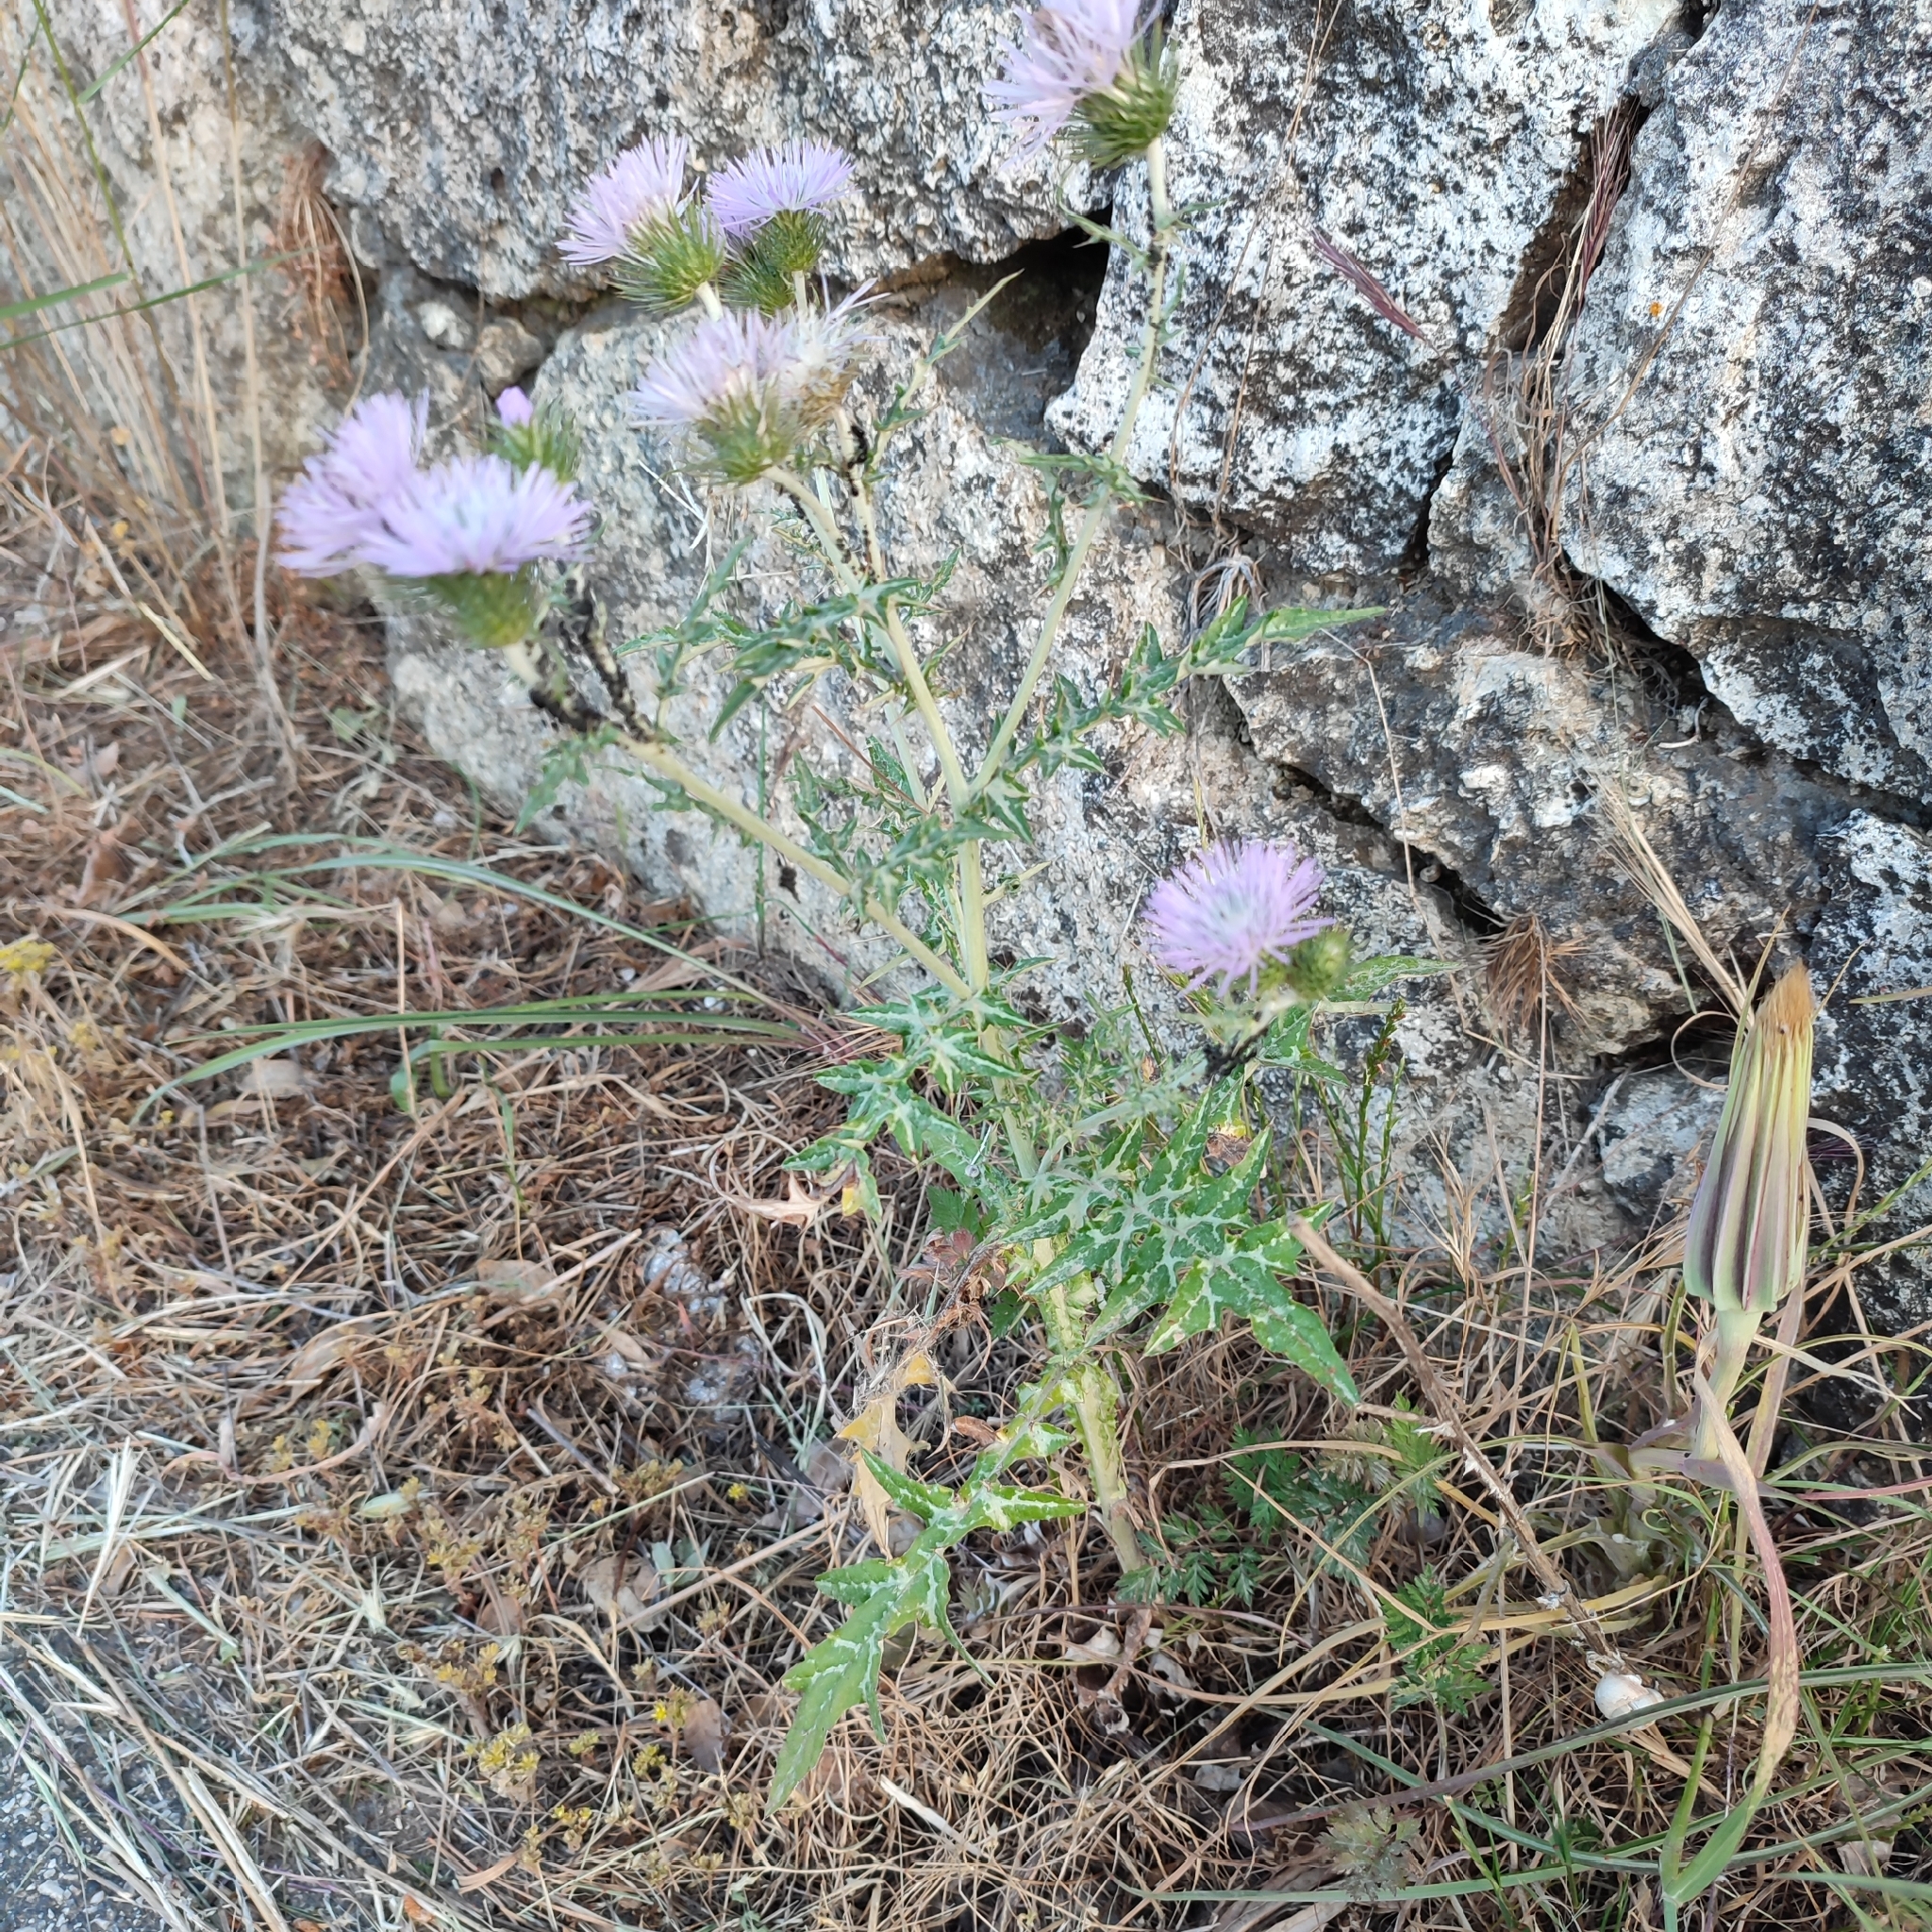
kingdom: Plantae
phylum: Tracheophyta
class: Magnoliopsida
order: Asterales
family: Asteraceae
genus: Galactites
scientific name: Galactites tomentosa
